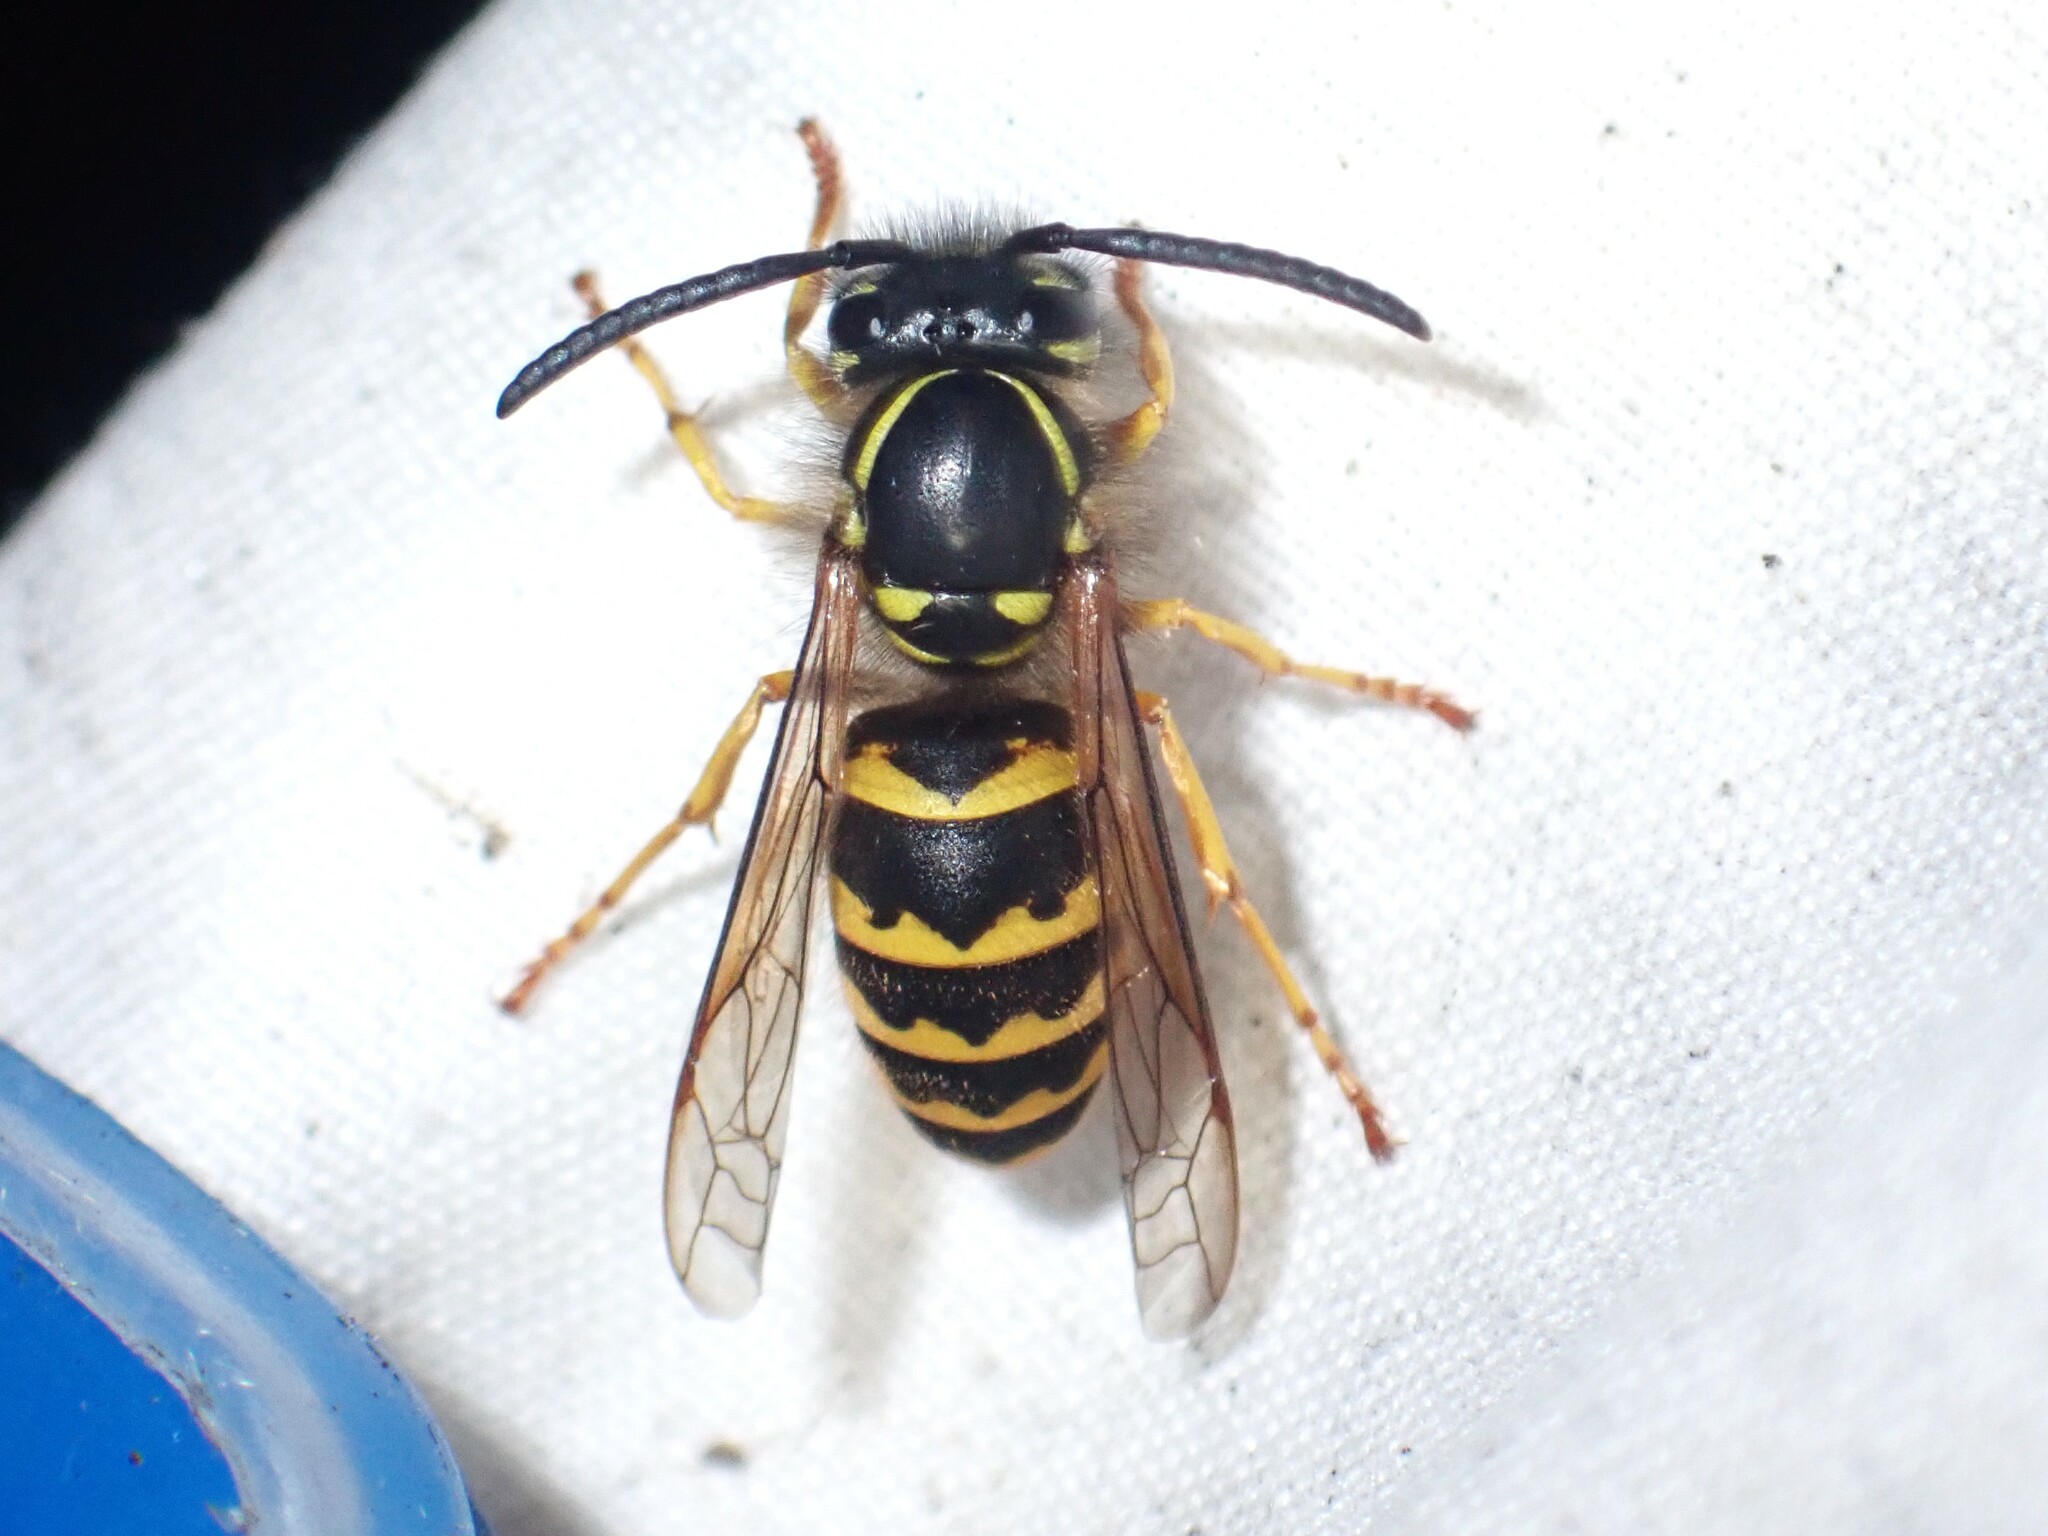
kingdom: Animalia
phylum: Arthropoda
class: Insecta
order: Hymenoptera
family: Vespidae
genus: Vespula
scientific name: Vespula alascensis
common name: Alaska yellowjacket
